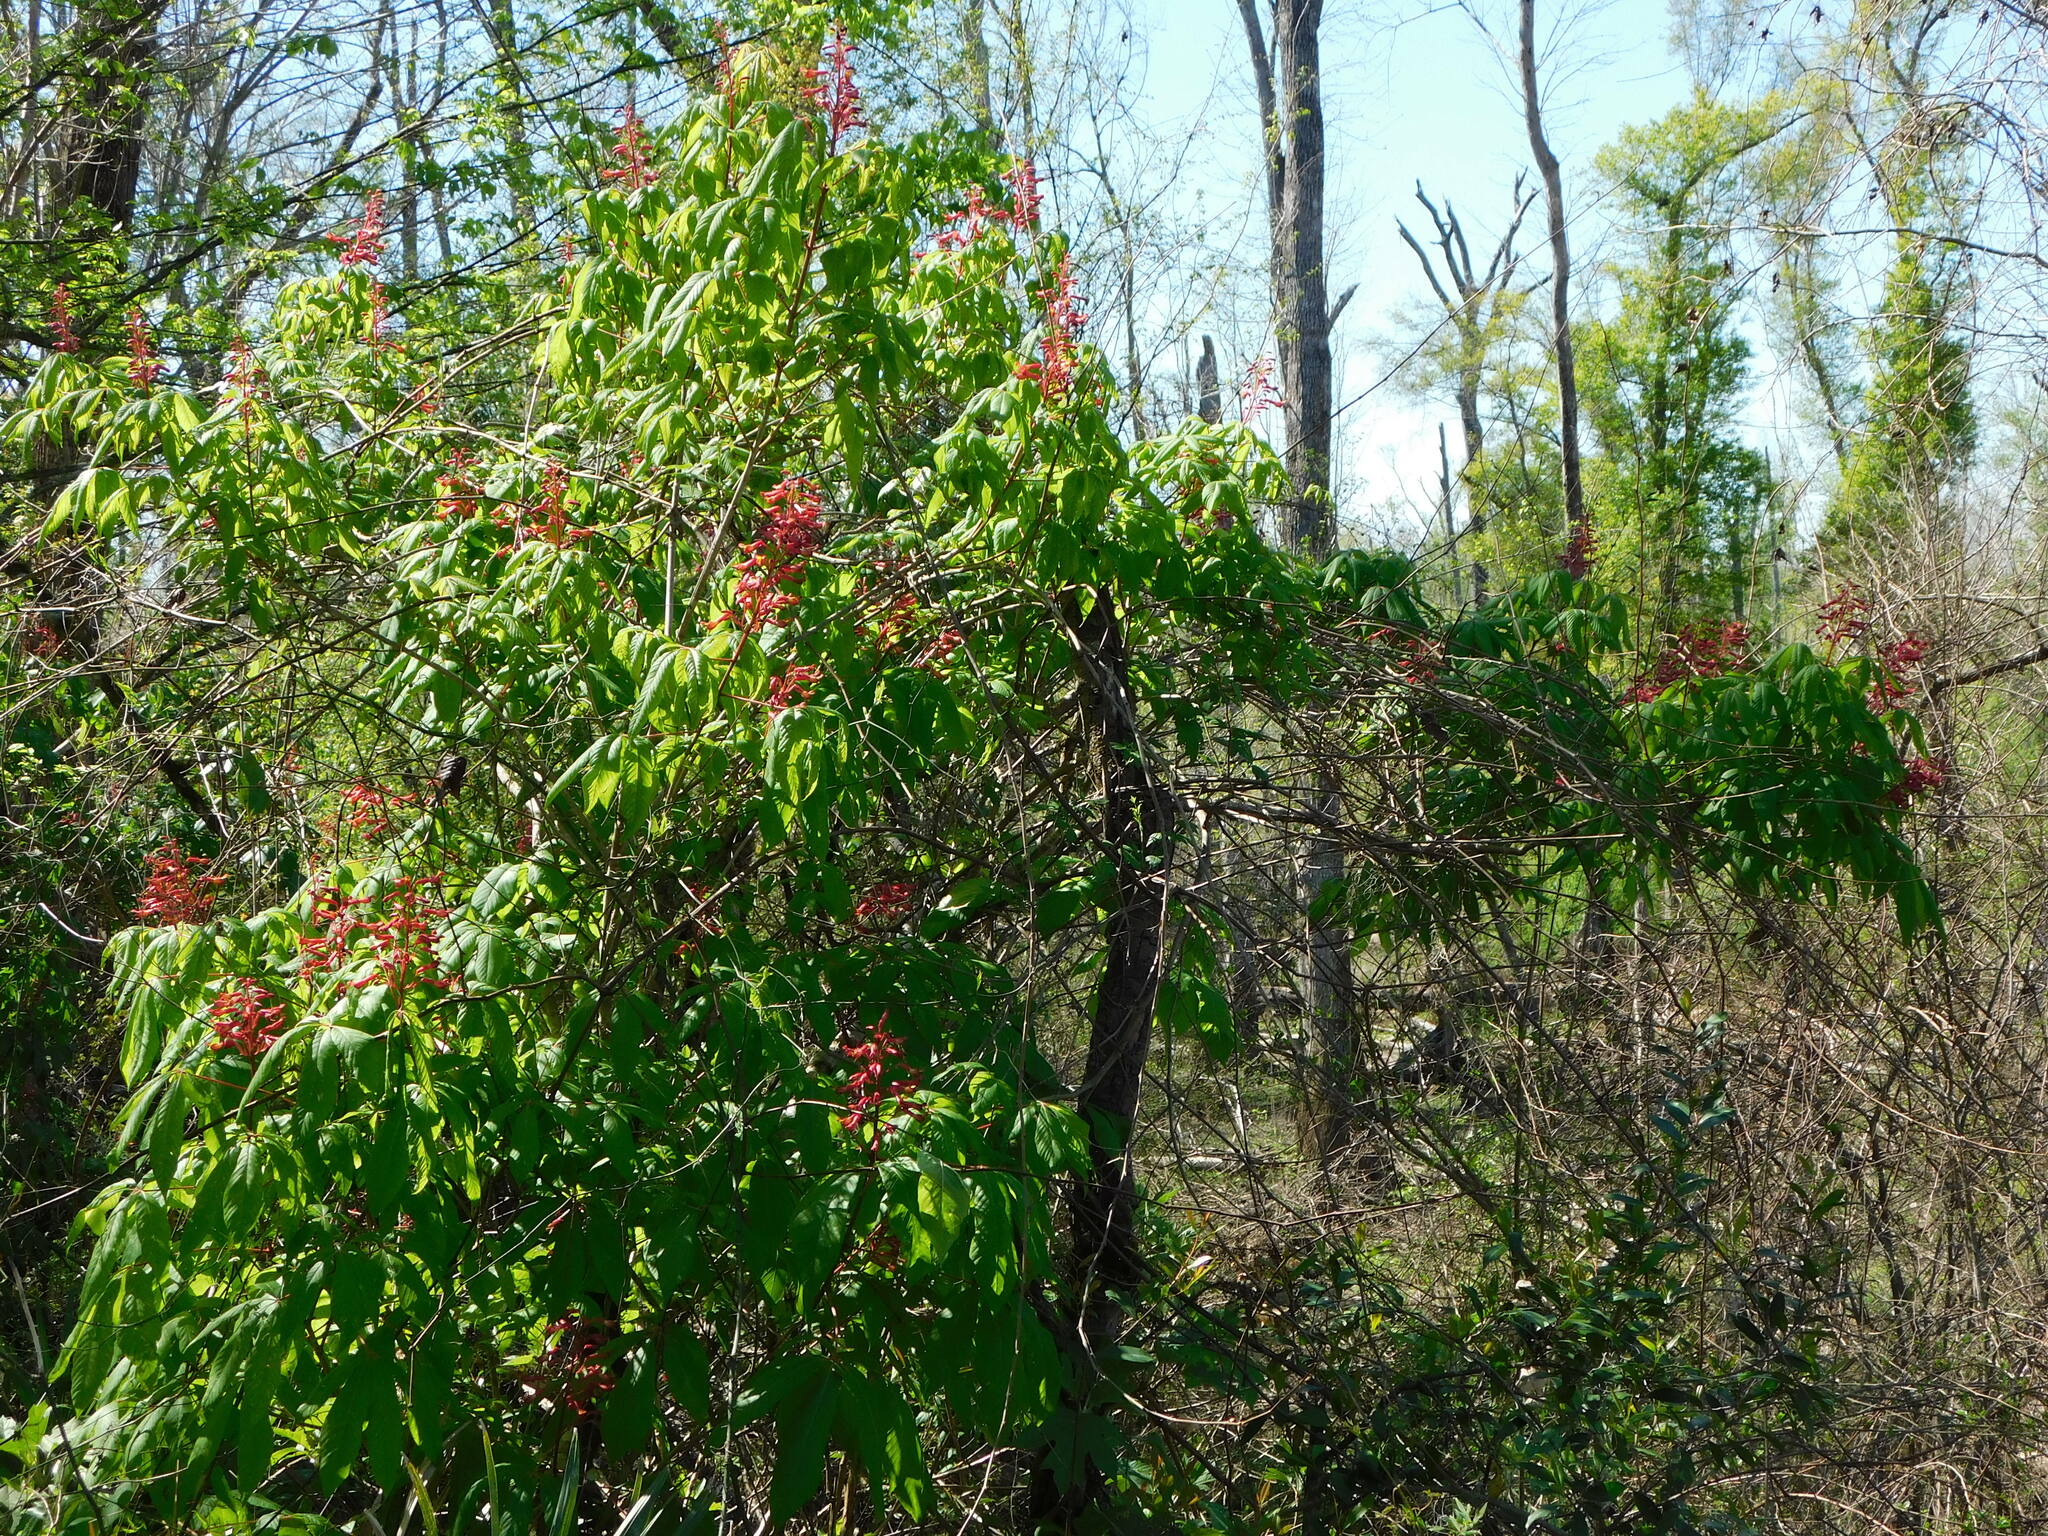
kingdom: Plantae
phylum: Tracheophyta
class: Magnoliopsida
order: Sapindales
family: Sapindaceae
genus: Aesculus
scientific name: Aesculus pavia
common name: Red buckeye
